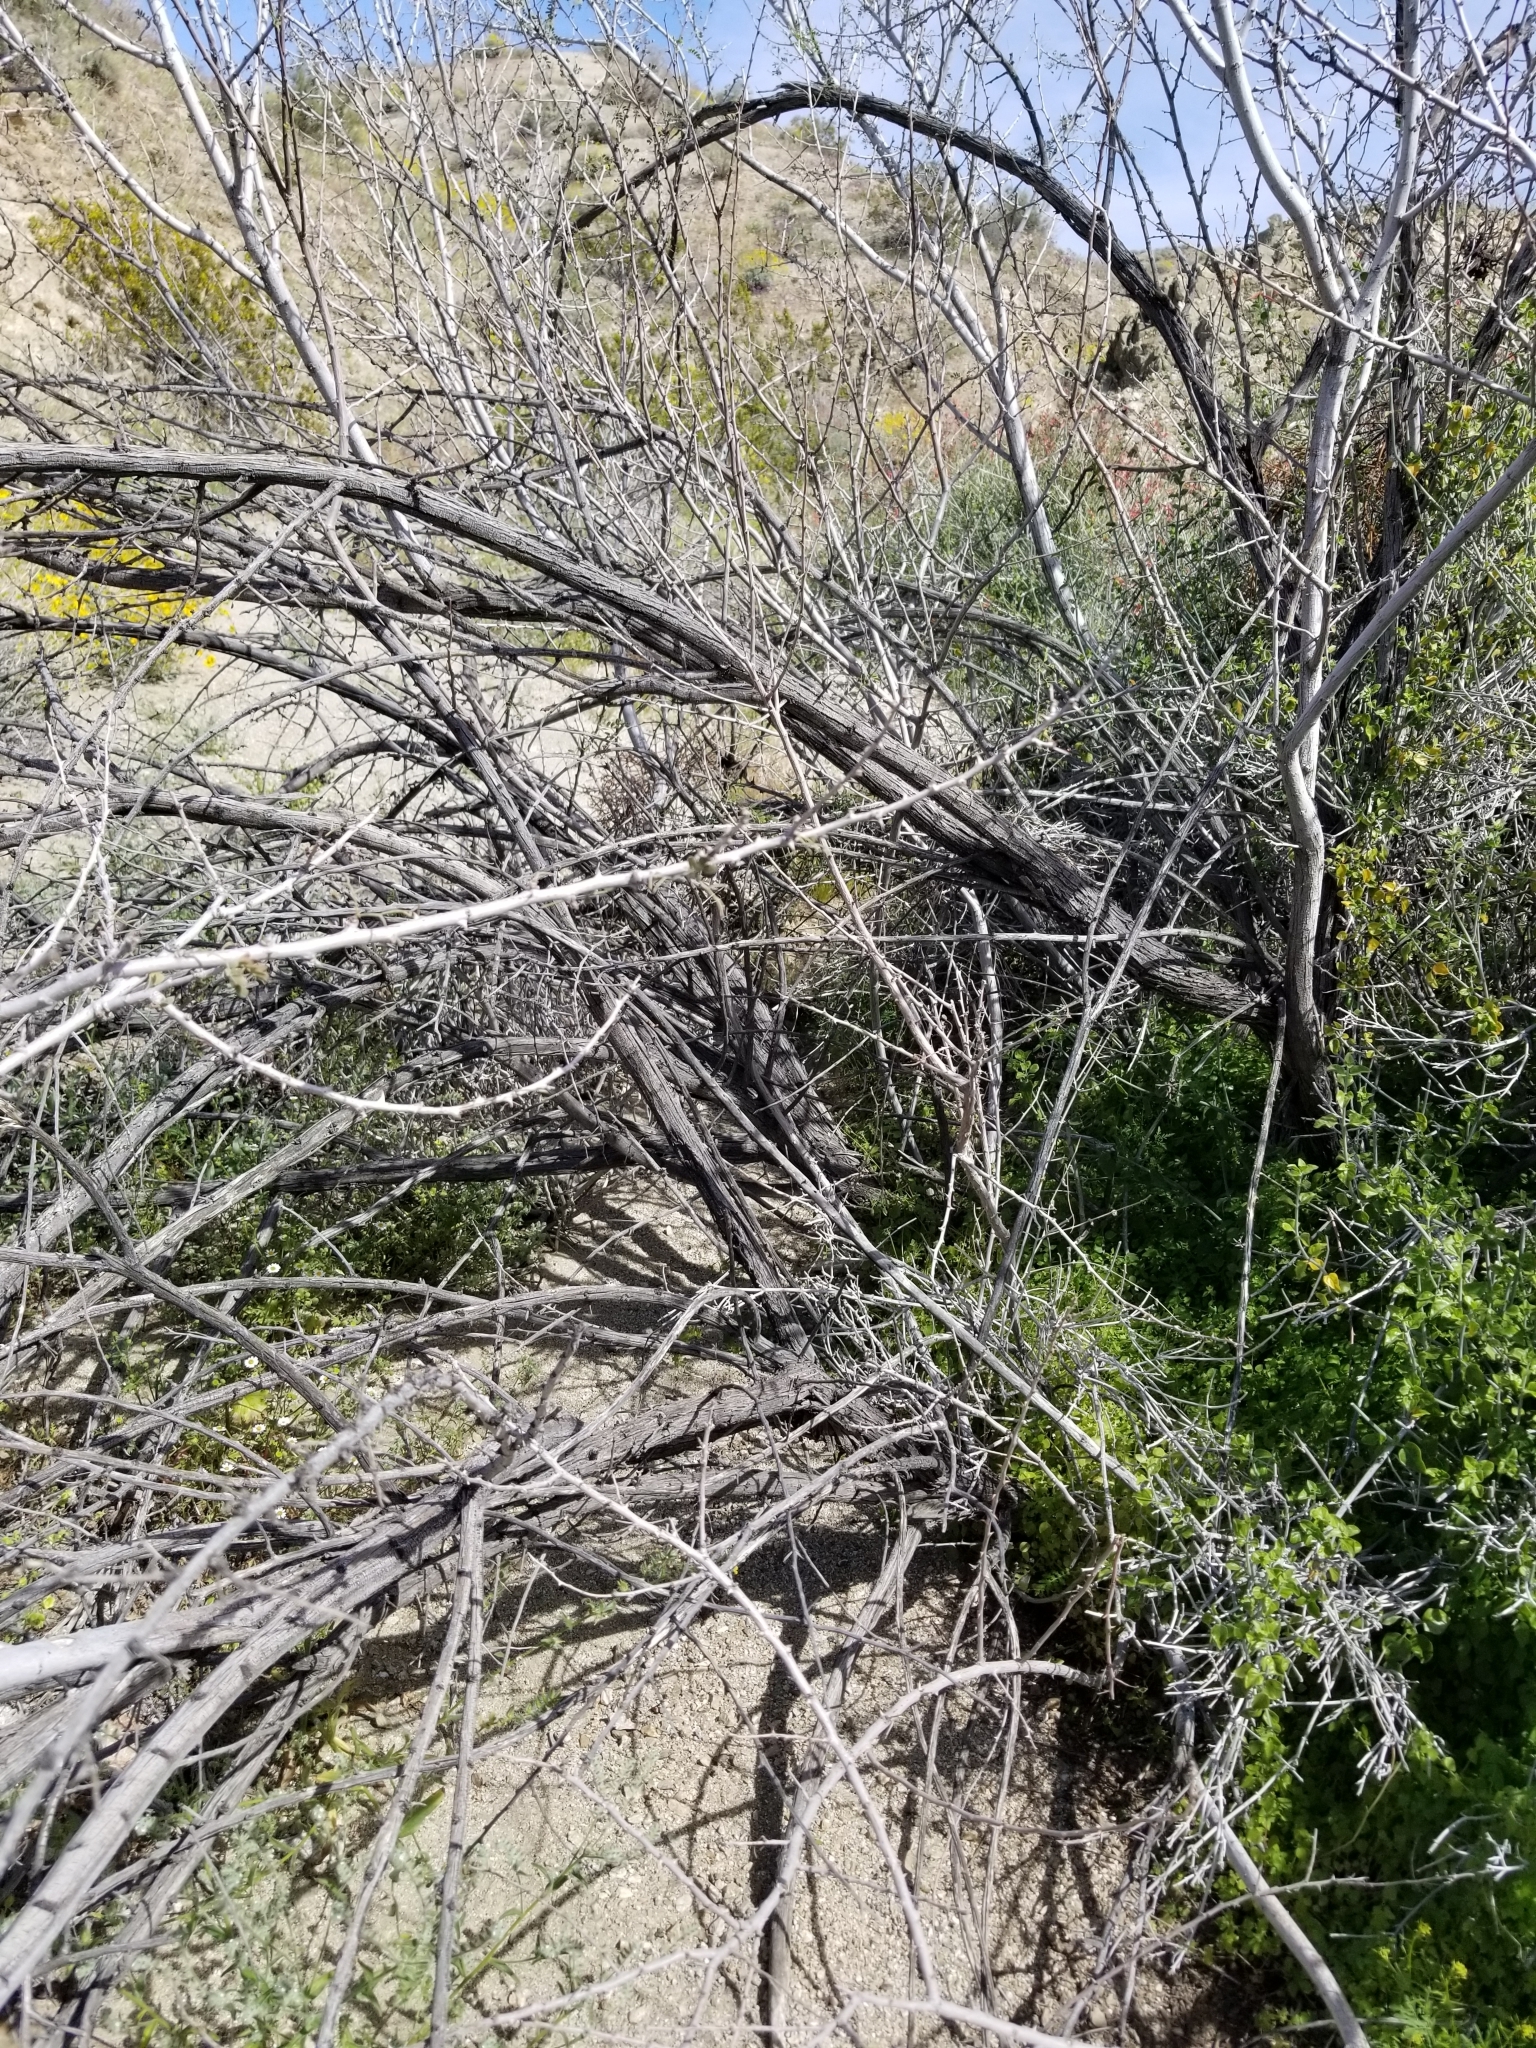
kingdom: Plantae
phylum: Tracheophyta
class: Magnoliopsida
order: Fabales
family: Fabaceae
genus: Senegalia
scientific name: Senegalia greggii
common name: Texas-mimosa
